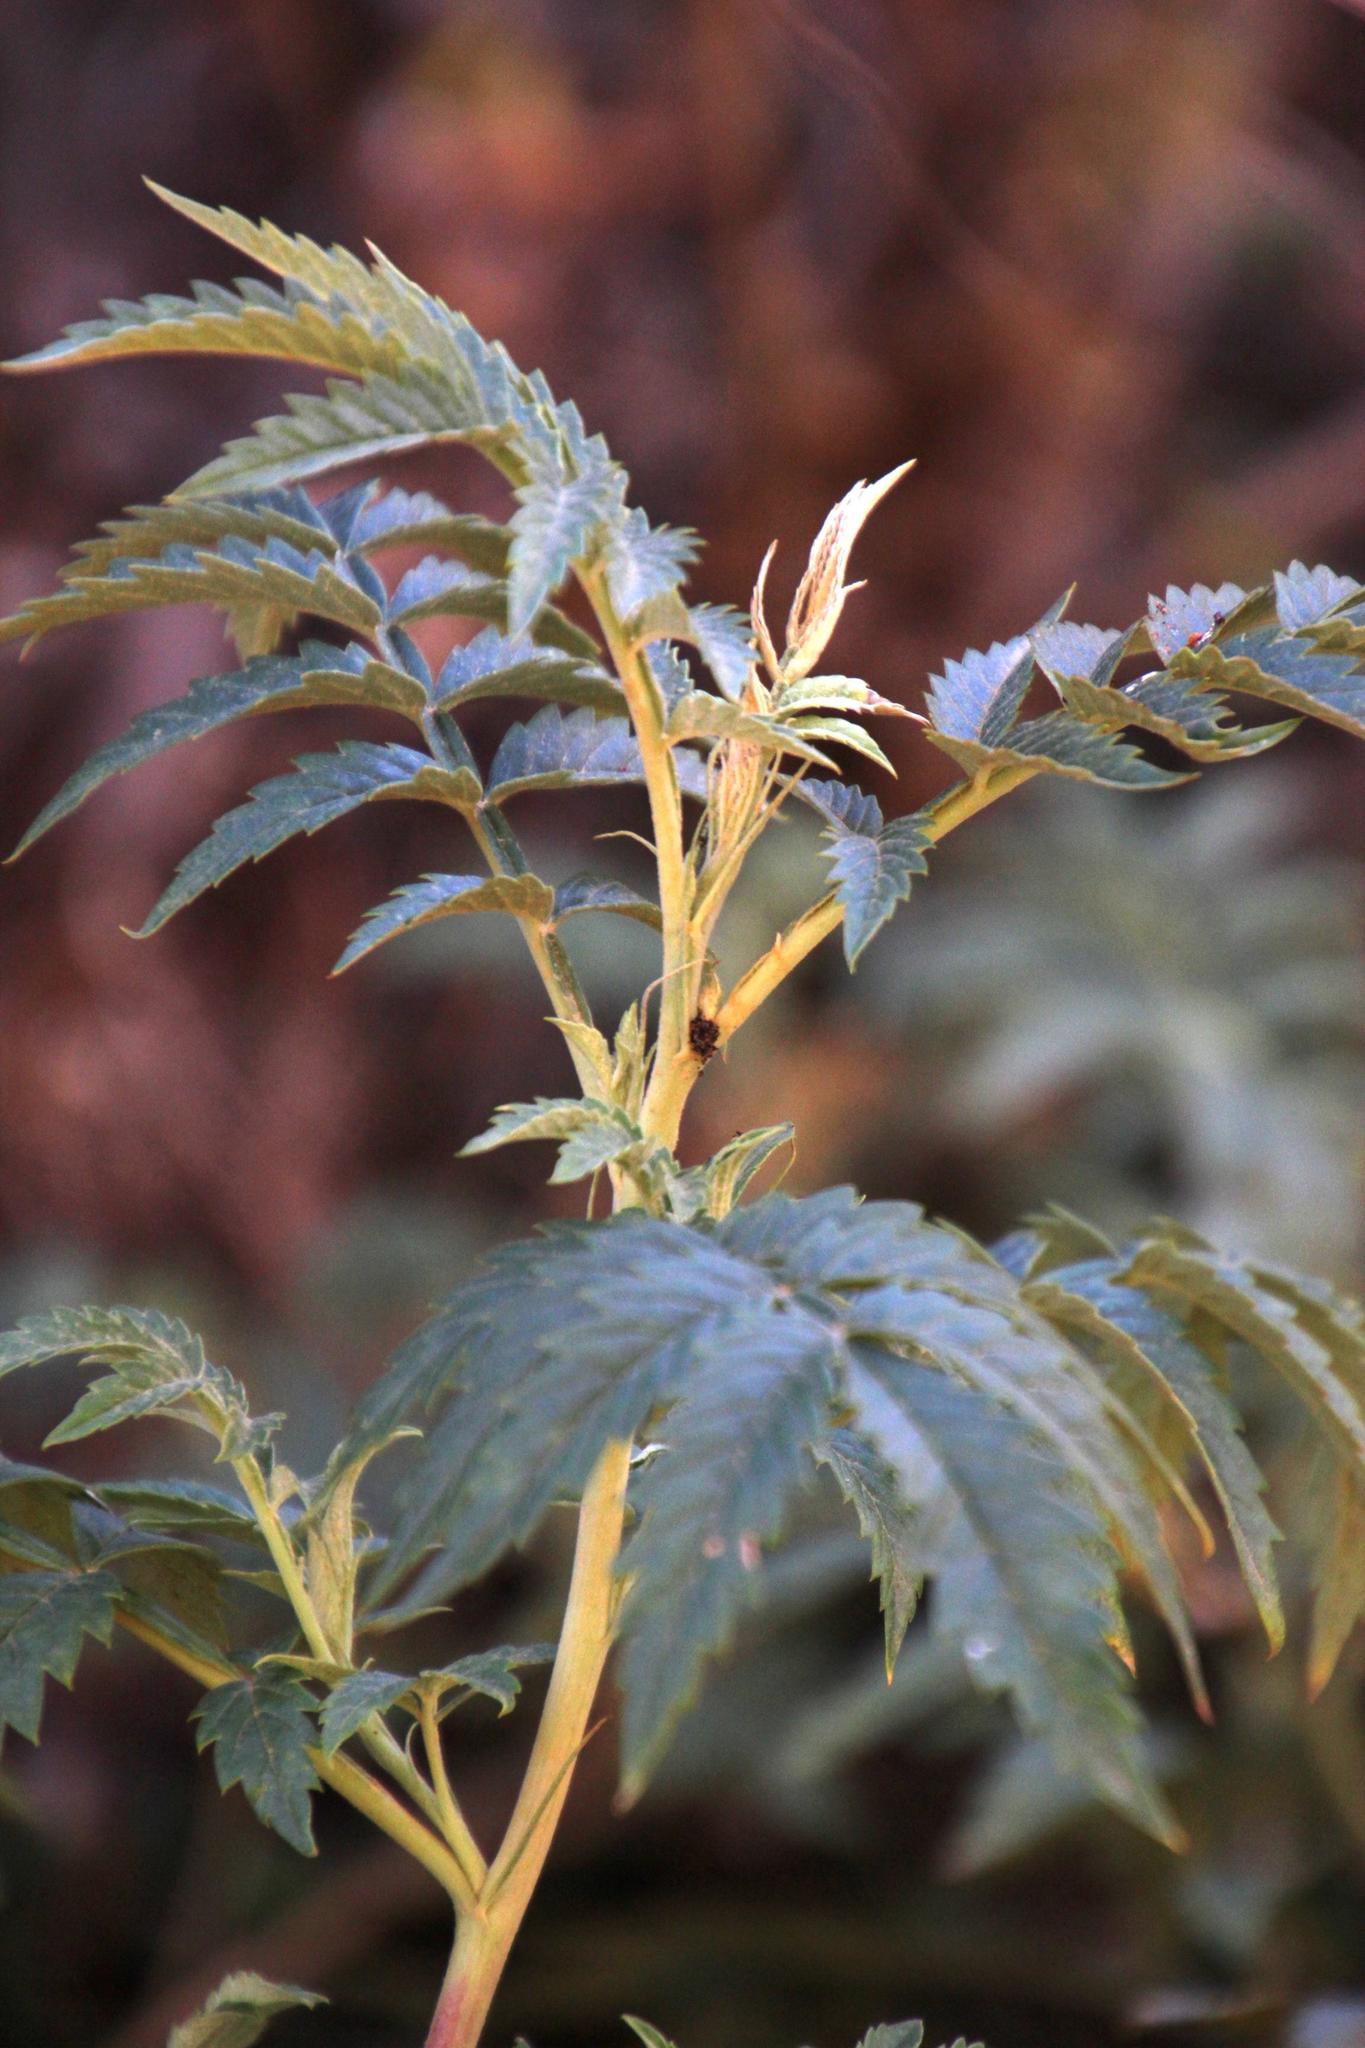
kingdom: Plantae
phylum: Tracheophyta
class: Magnoliopsida
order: Geraniales
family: Melianthaceae
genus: Melianthus
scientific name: Melianthus comosus
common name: Touch-me-not
